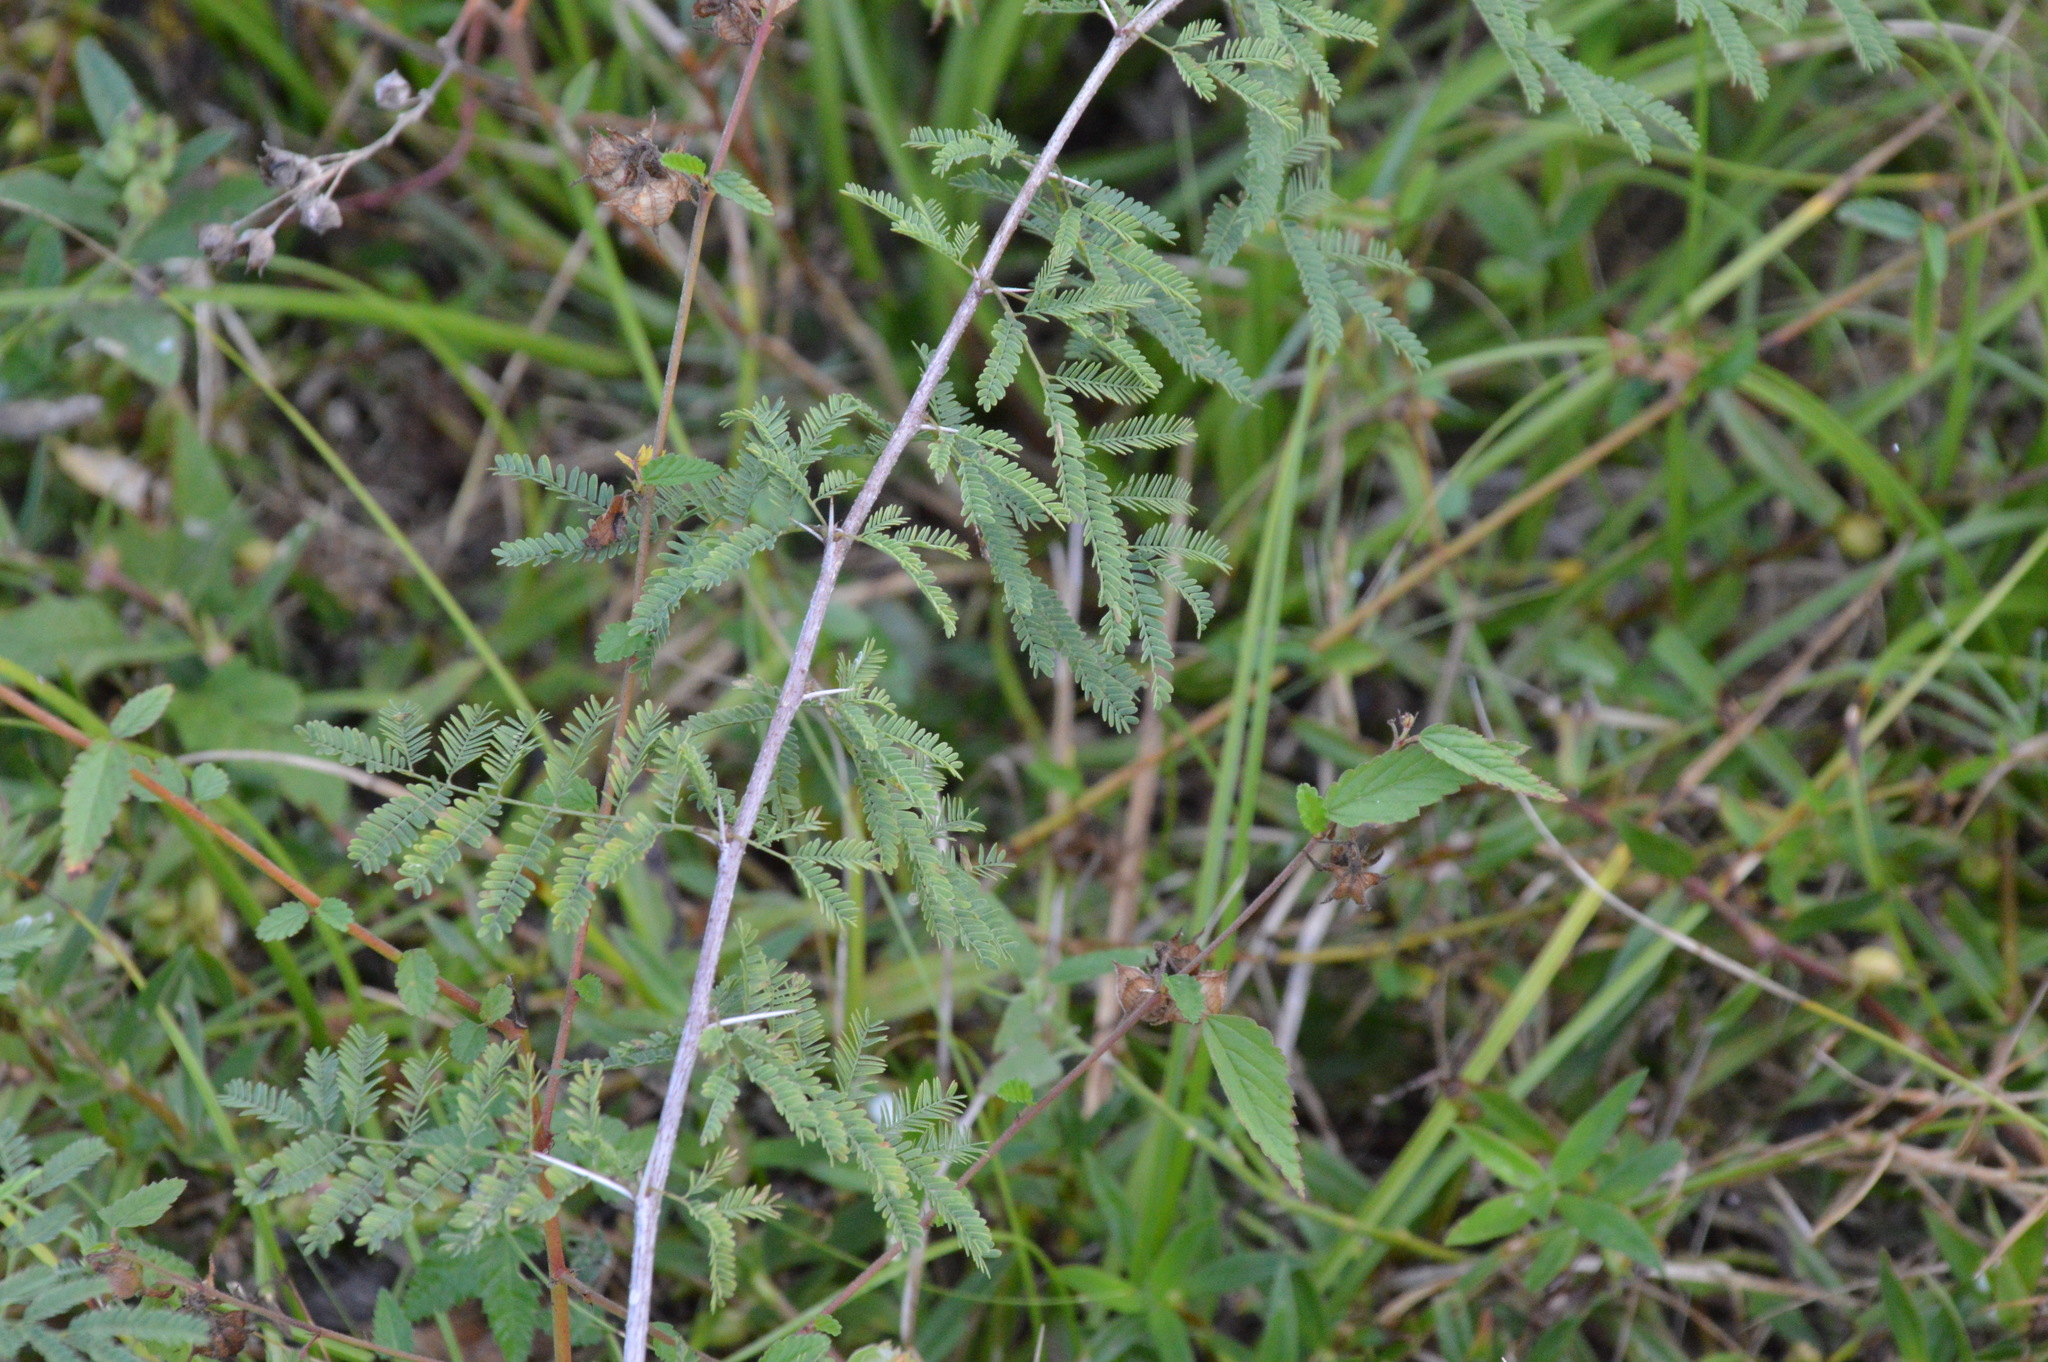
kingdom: Plantae
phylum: Tracheophyta
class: Magnoliopsida
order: Fabales
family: Fabaceae
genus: Vachellia
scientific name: Vachellia farnesiana
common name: Sweet acacia
